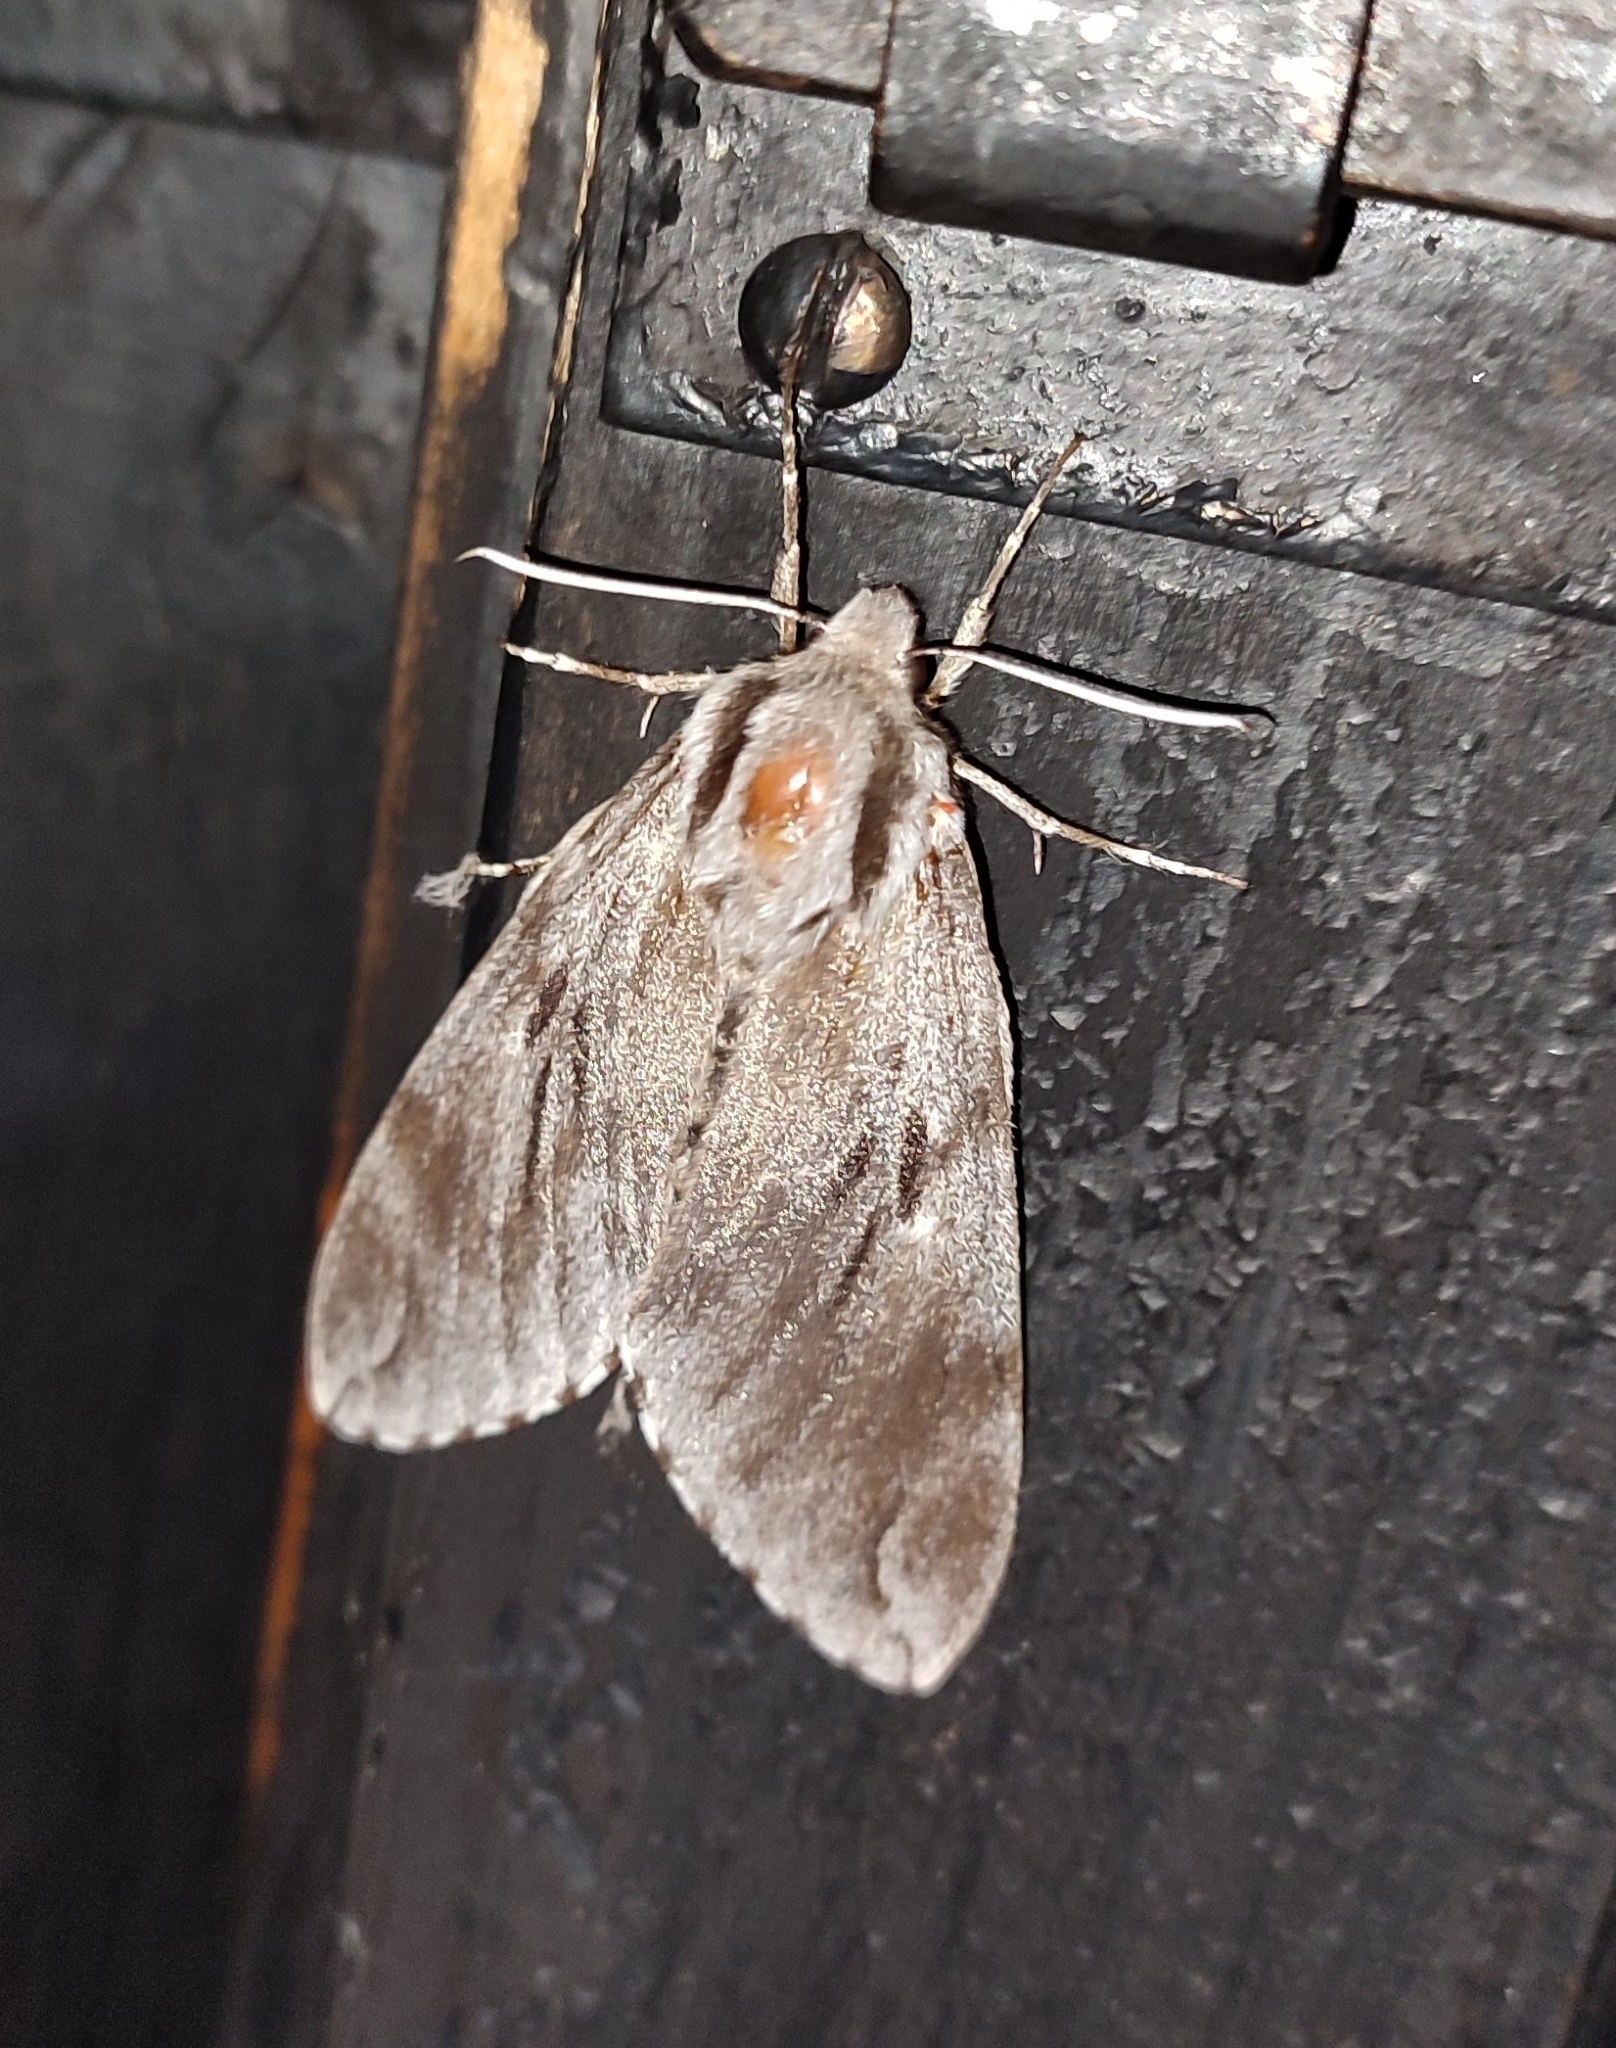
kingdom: Animalia
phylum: Arthropoda
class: Insecta
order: Lepidoptera
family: Sphingidae
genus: Sphinx
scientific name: Sphinx pinastri
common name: Pine hawk-moth
